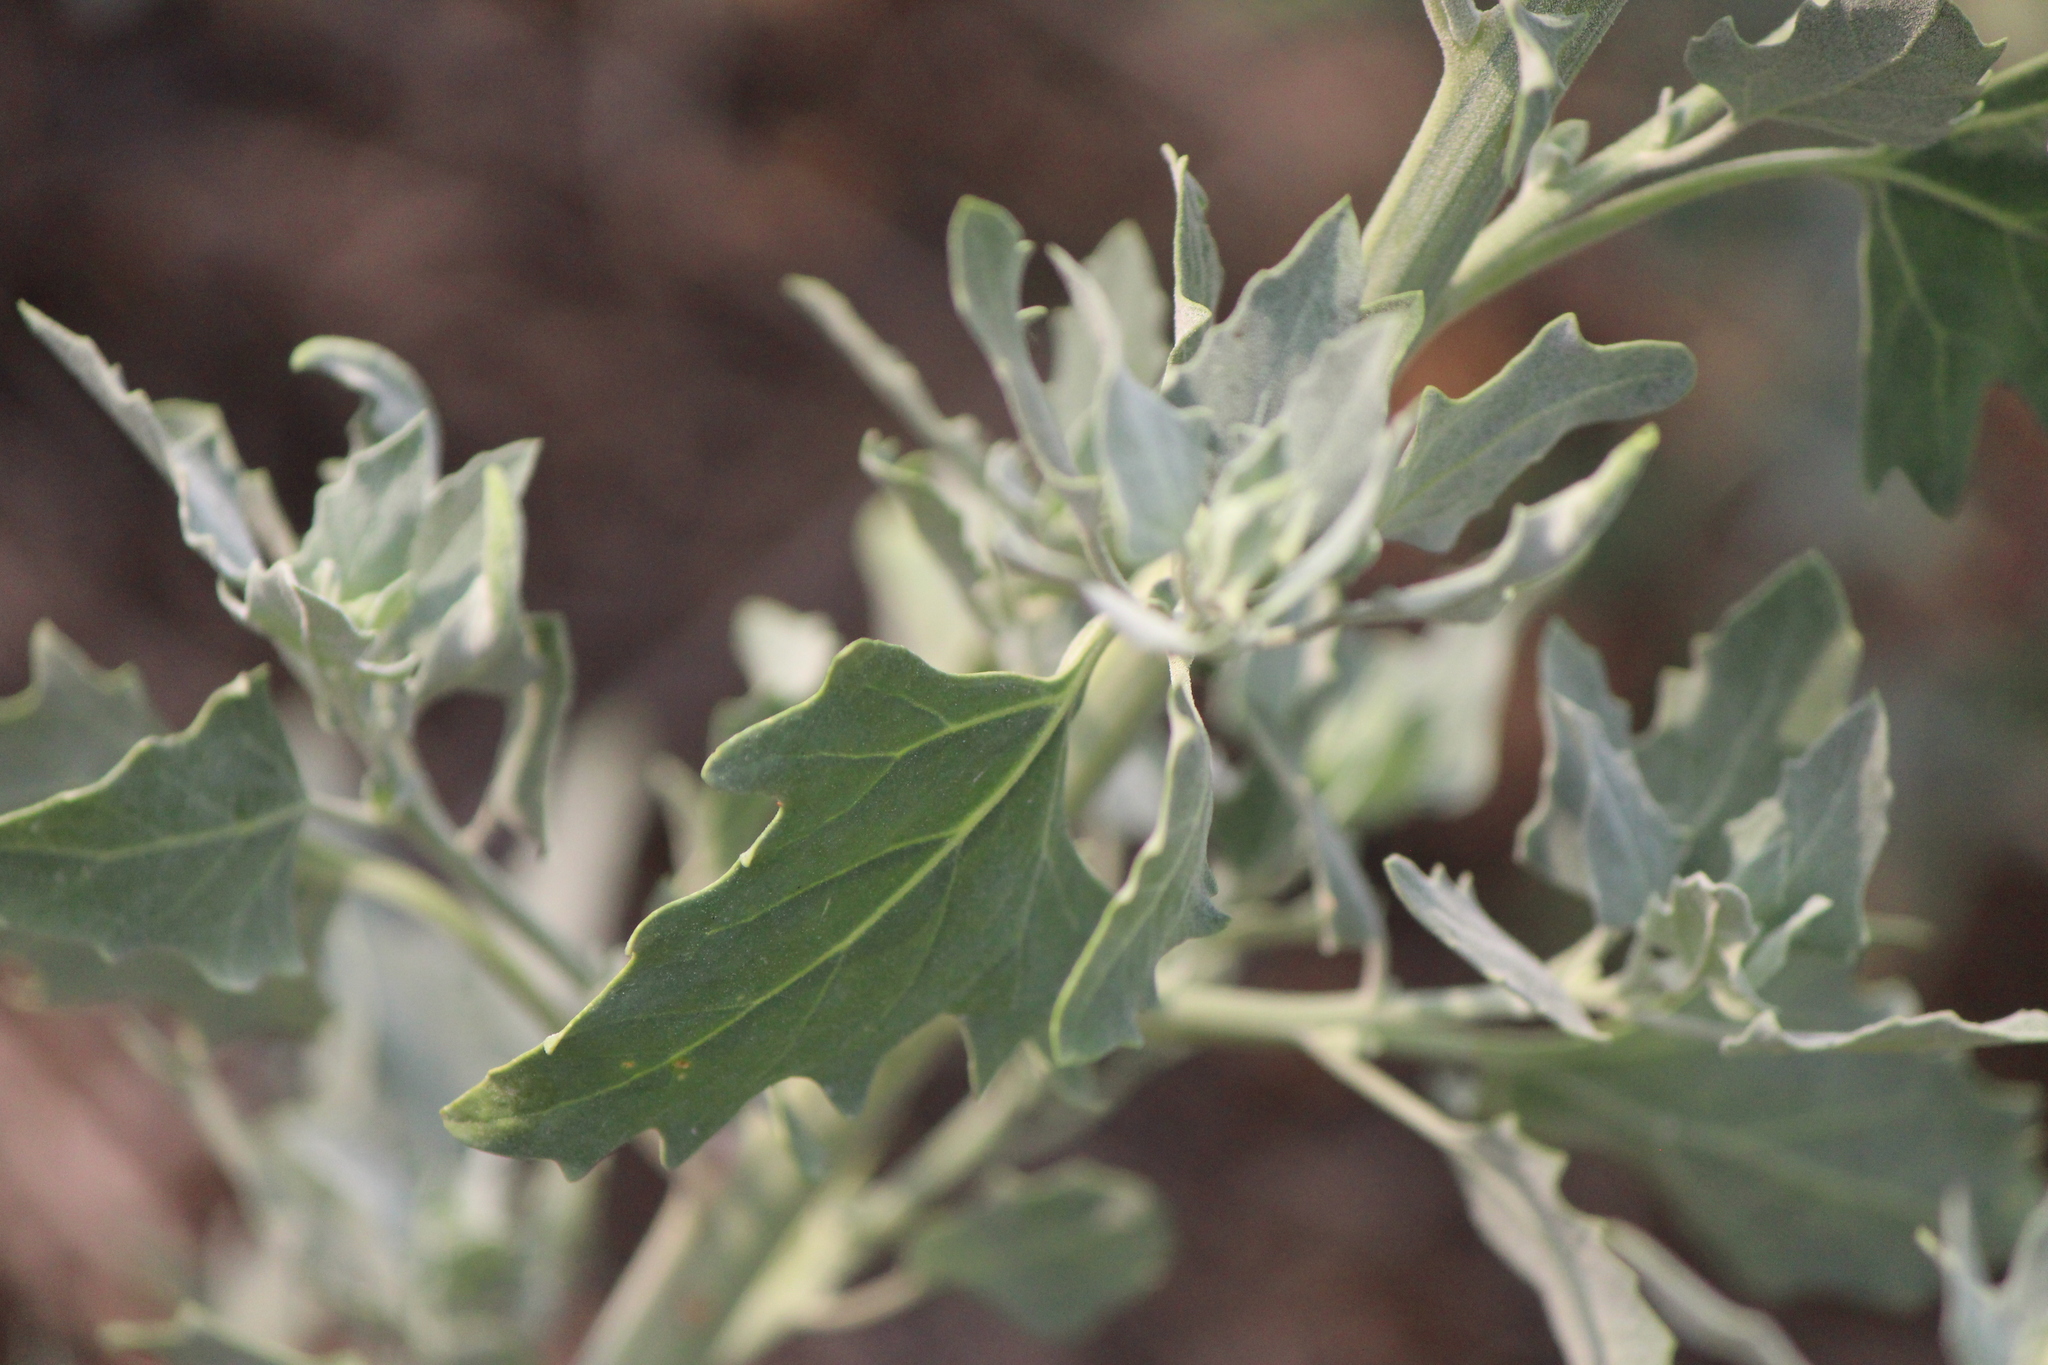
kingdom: Plantae
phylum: Tracheophyta
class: Magnoliopsida
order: Caryophyllales
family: Amaranthaceae
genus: Chenopodium
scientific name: Chenopodium album
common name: Fat-hen
